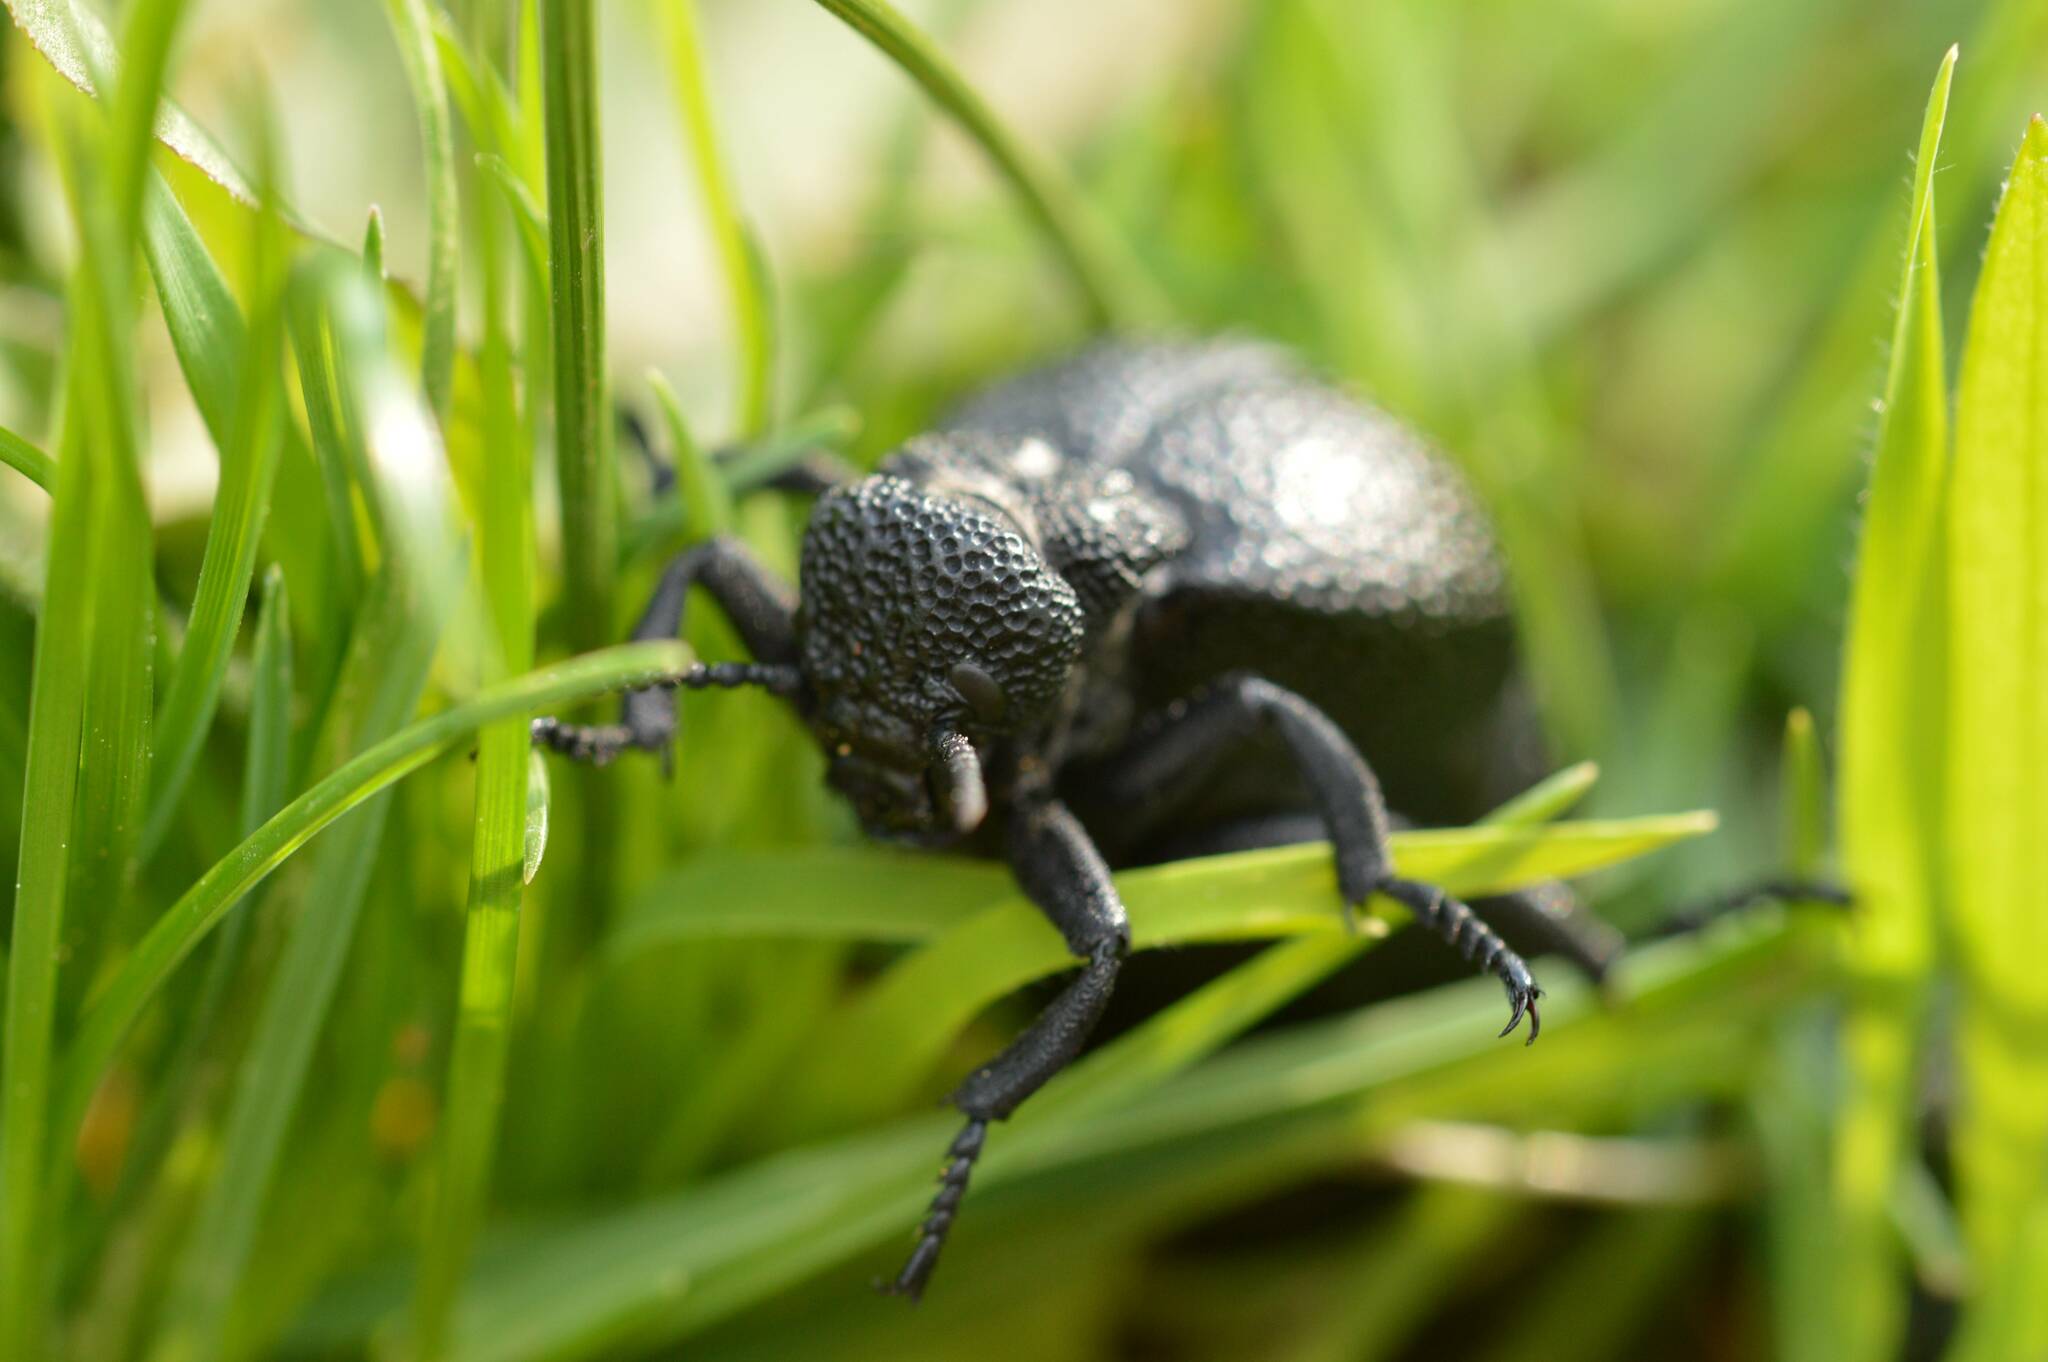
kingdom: Animalia
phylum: Arthropoda
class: Insecta
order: Coleoptera
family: Meloidae
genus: Meloe
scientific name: Meloe tuccius
